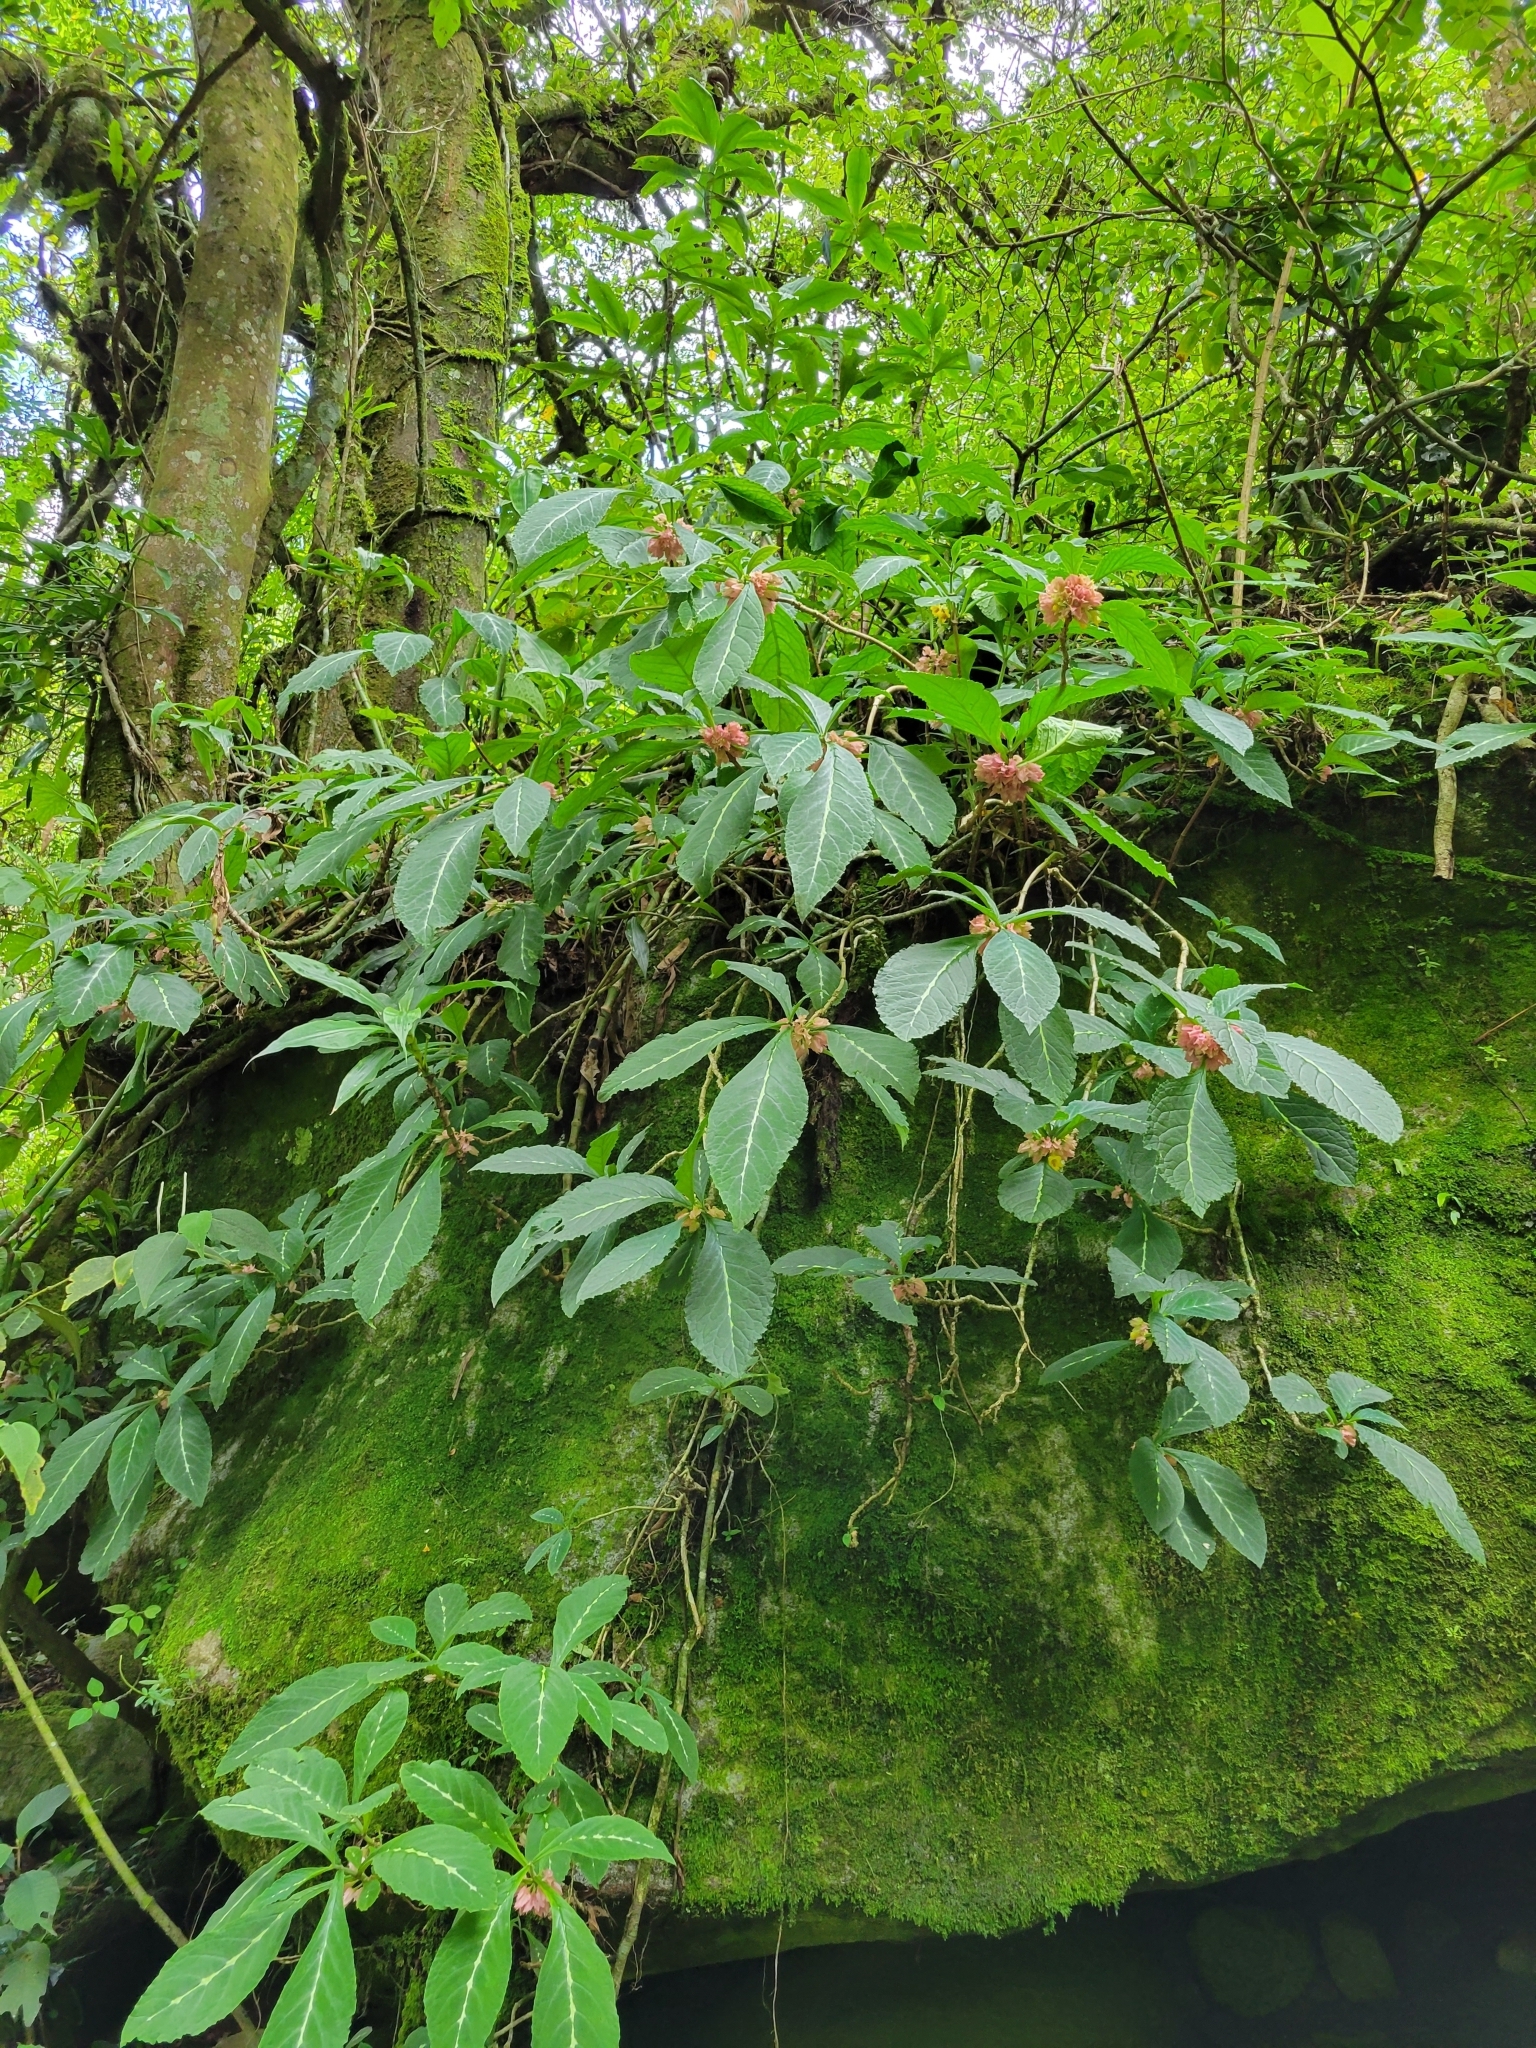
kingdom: Plantae
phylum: Tracheophyta
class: Magnoliopsida
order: Lamiales
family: Gesneriaceae
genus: Drymonia
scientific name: Drymonia parviflora
